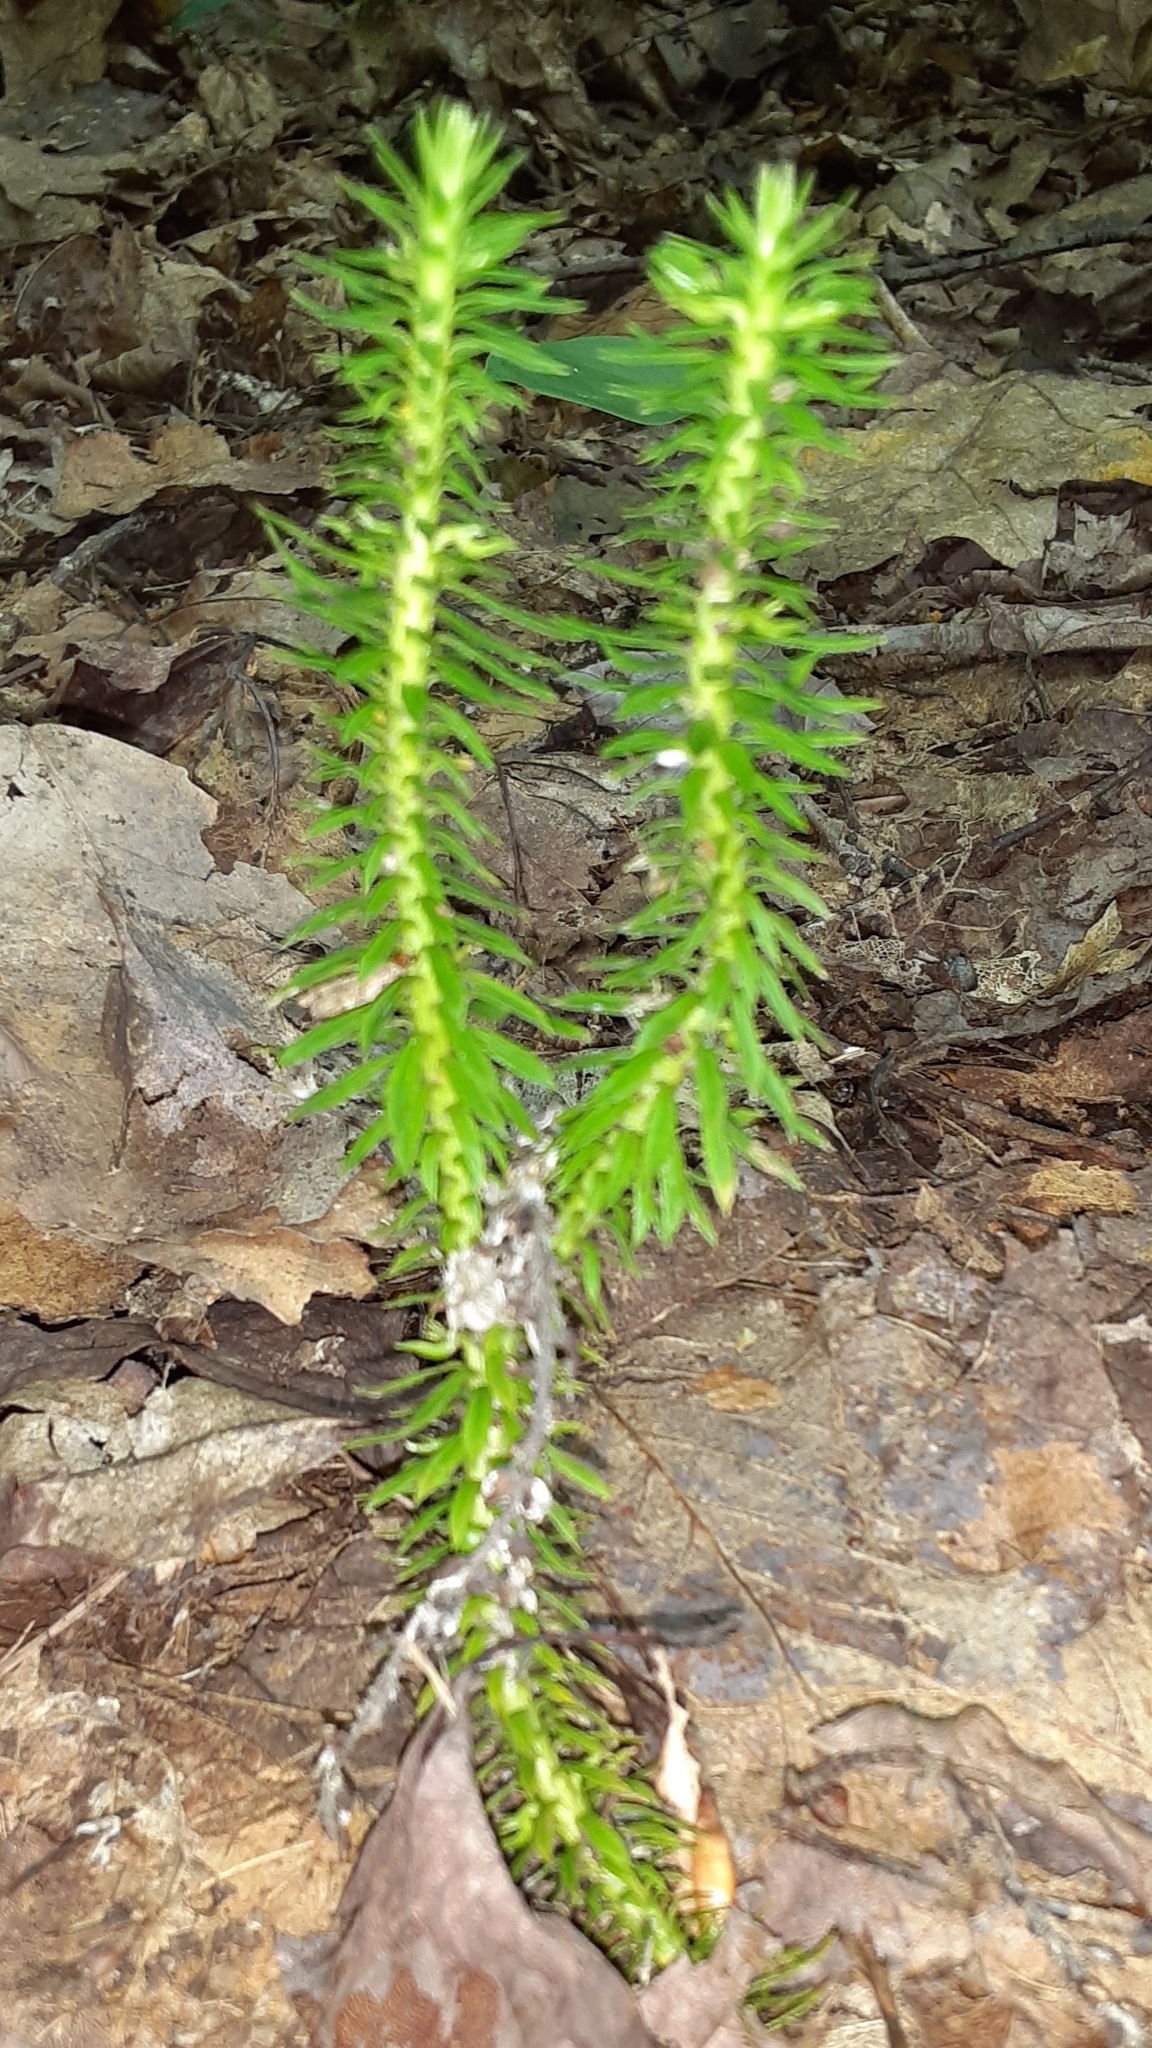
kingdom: Plantae
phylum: Tracheophyta
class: Lycopodiopsida
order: Lycopodiales
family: Lycopodiaceae
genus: Huperzia
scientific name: Huperzia lucidula
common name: Shining clubmoss
